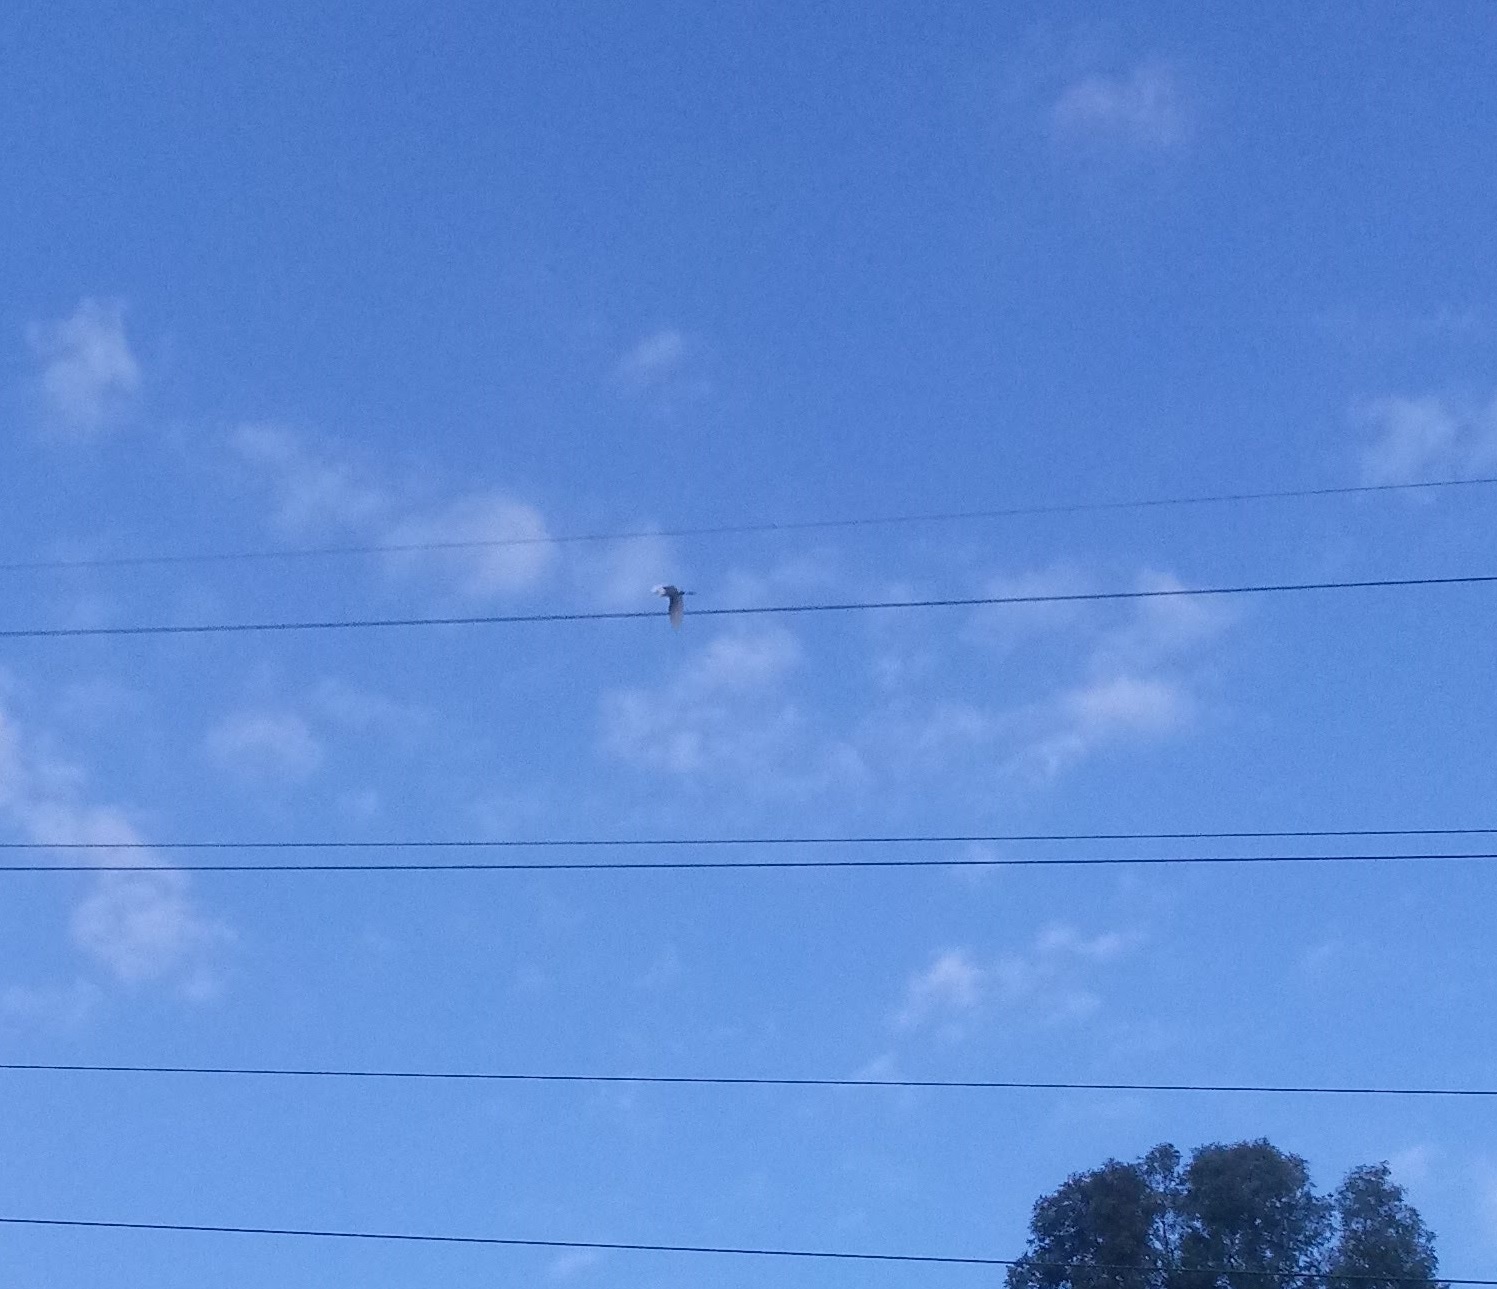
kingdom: Animalia
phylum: Chordata
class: Aves
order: Pelecaniformes
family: Ardeidae
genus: Bubulcus
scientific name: Bubulcus ibis
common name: Cattle egret
